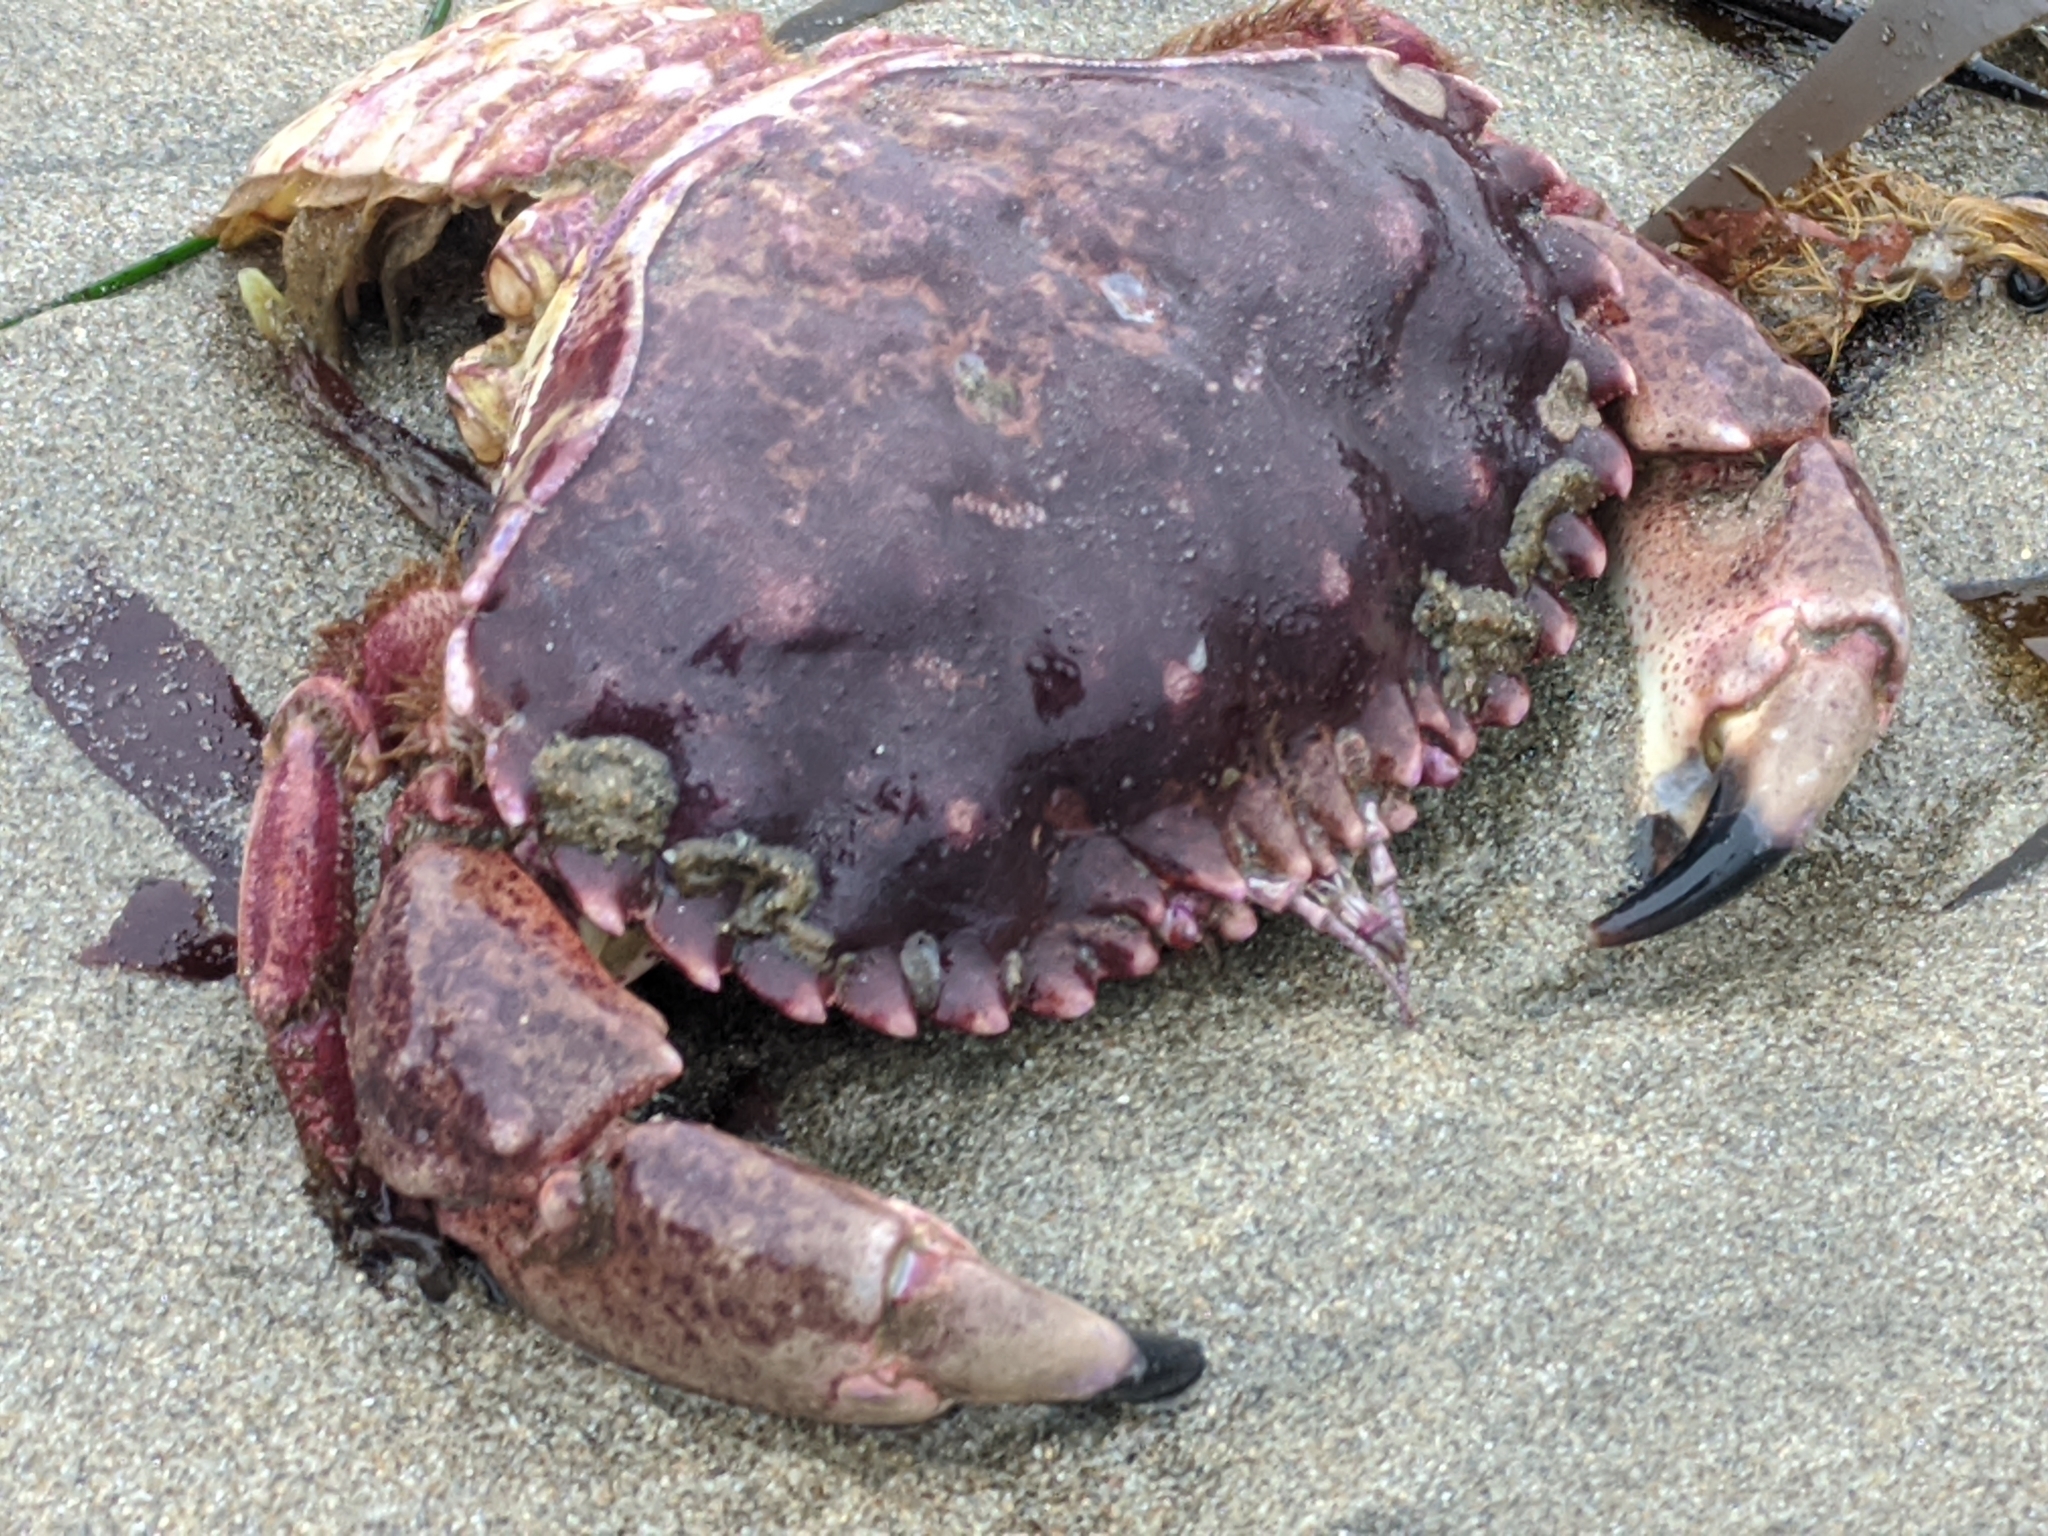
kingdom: Animalia
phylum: Arthropoda
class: Malacostraca
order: Decapoda
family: Cancridae
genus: Romaleon
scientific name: Romaleon antennarium
